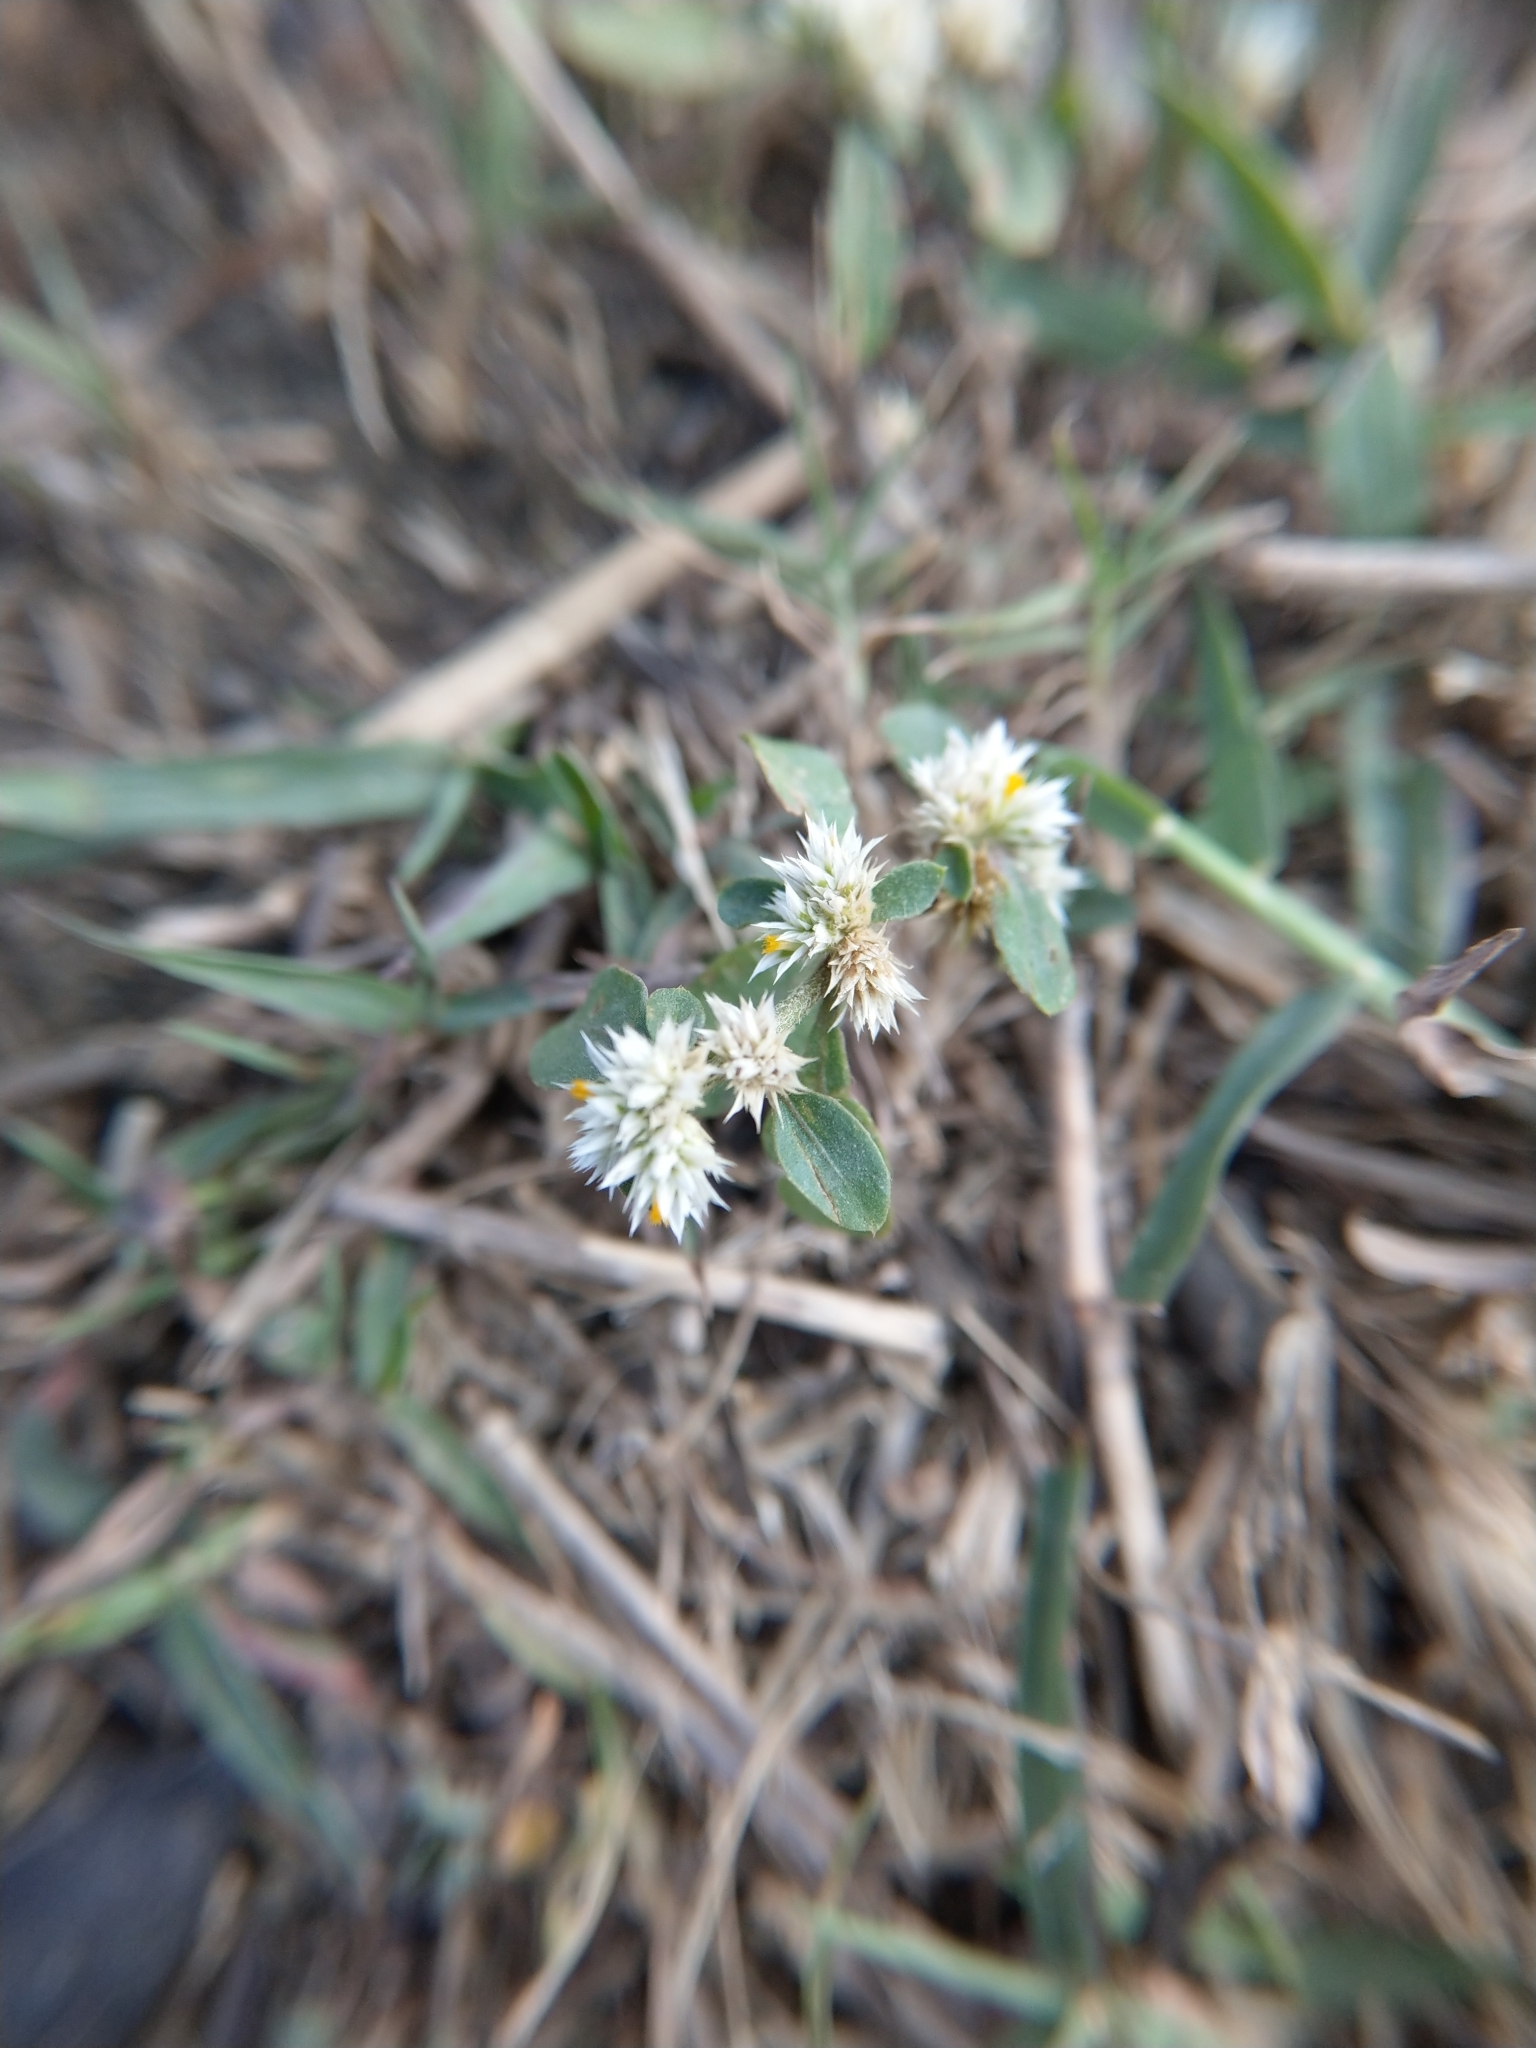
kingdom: Plantae
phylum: Tracheophyta
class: Magnoliopsida
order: Caryophyllales
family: Amaranthaceae
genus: Alternanthera
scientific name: Alternanthera ficoidea
